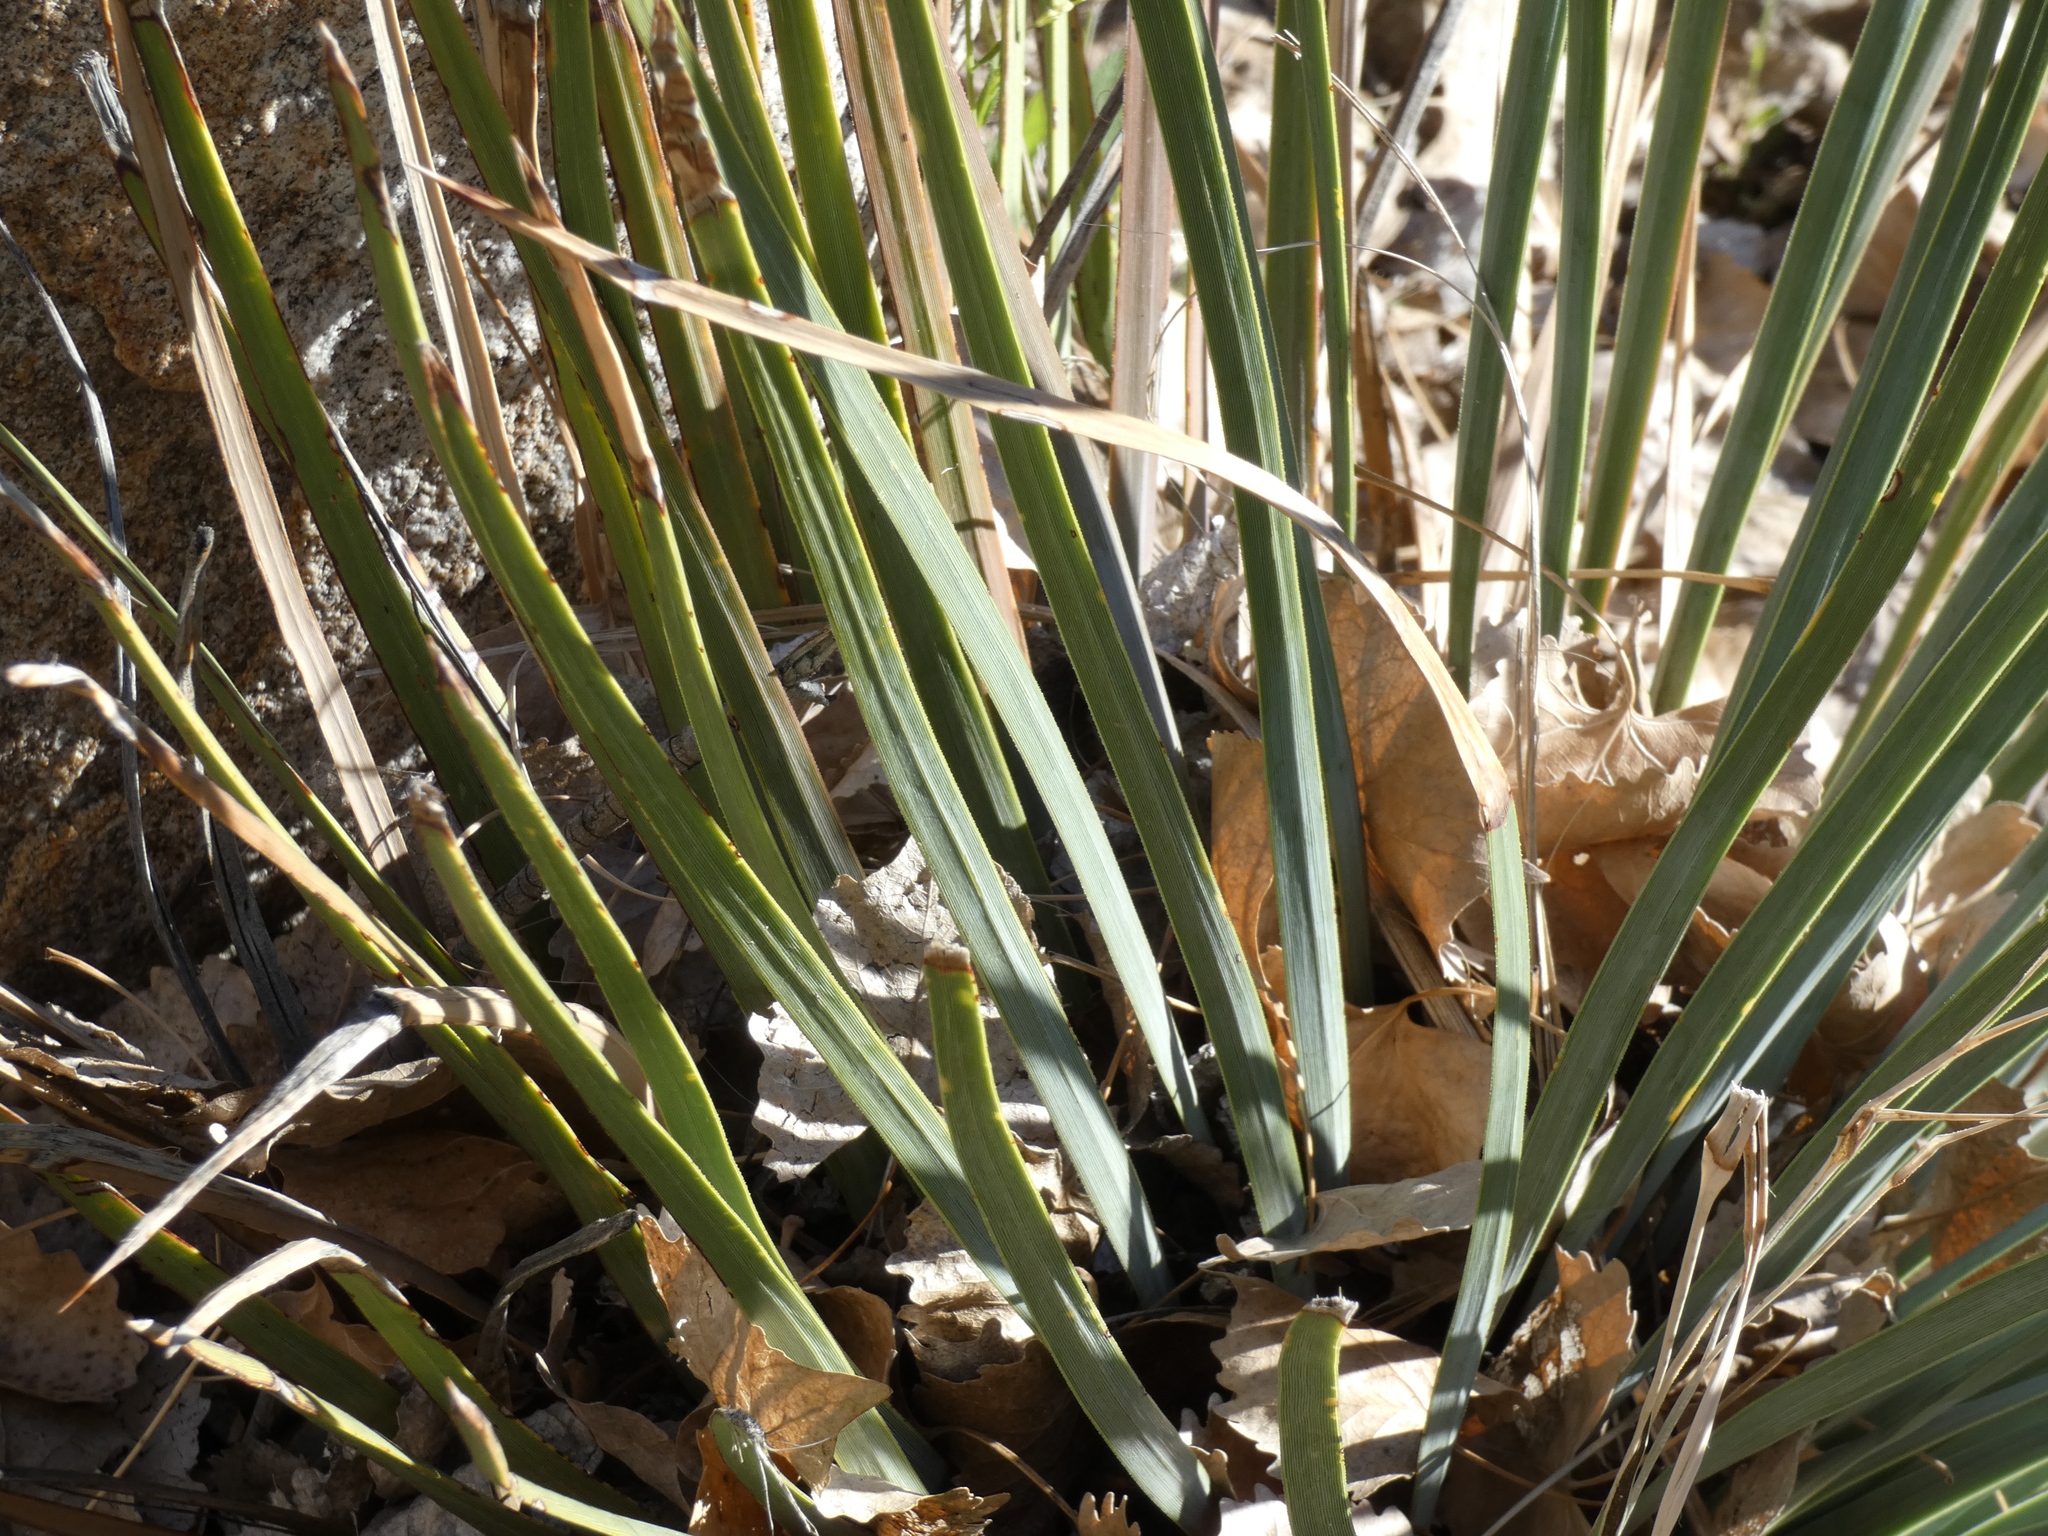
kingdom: Plantae
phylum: Tracheophyta
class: Liliopsida
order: Asparagales
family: Asparagaceae
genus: Hesperoyucca
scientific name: Hesperoyucca whipplei
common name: Our lord's-candle
